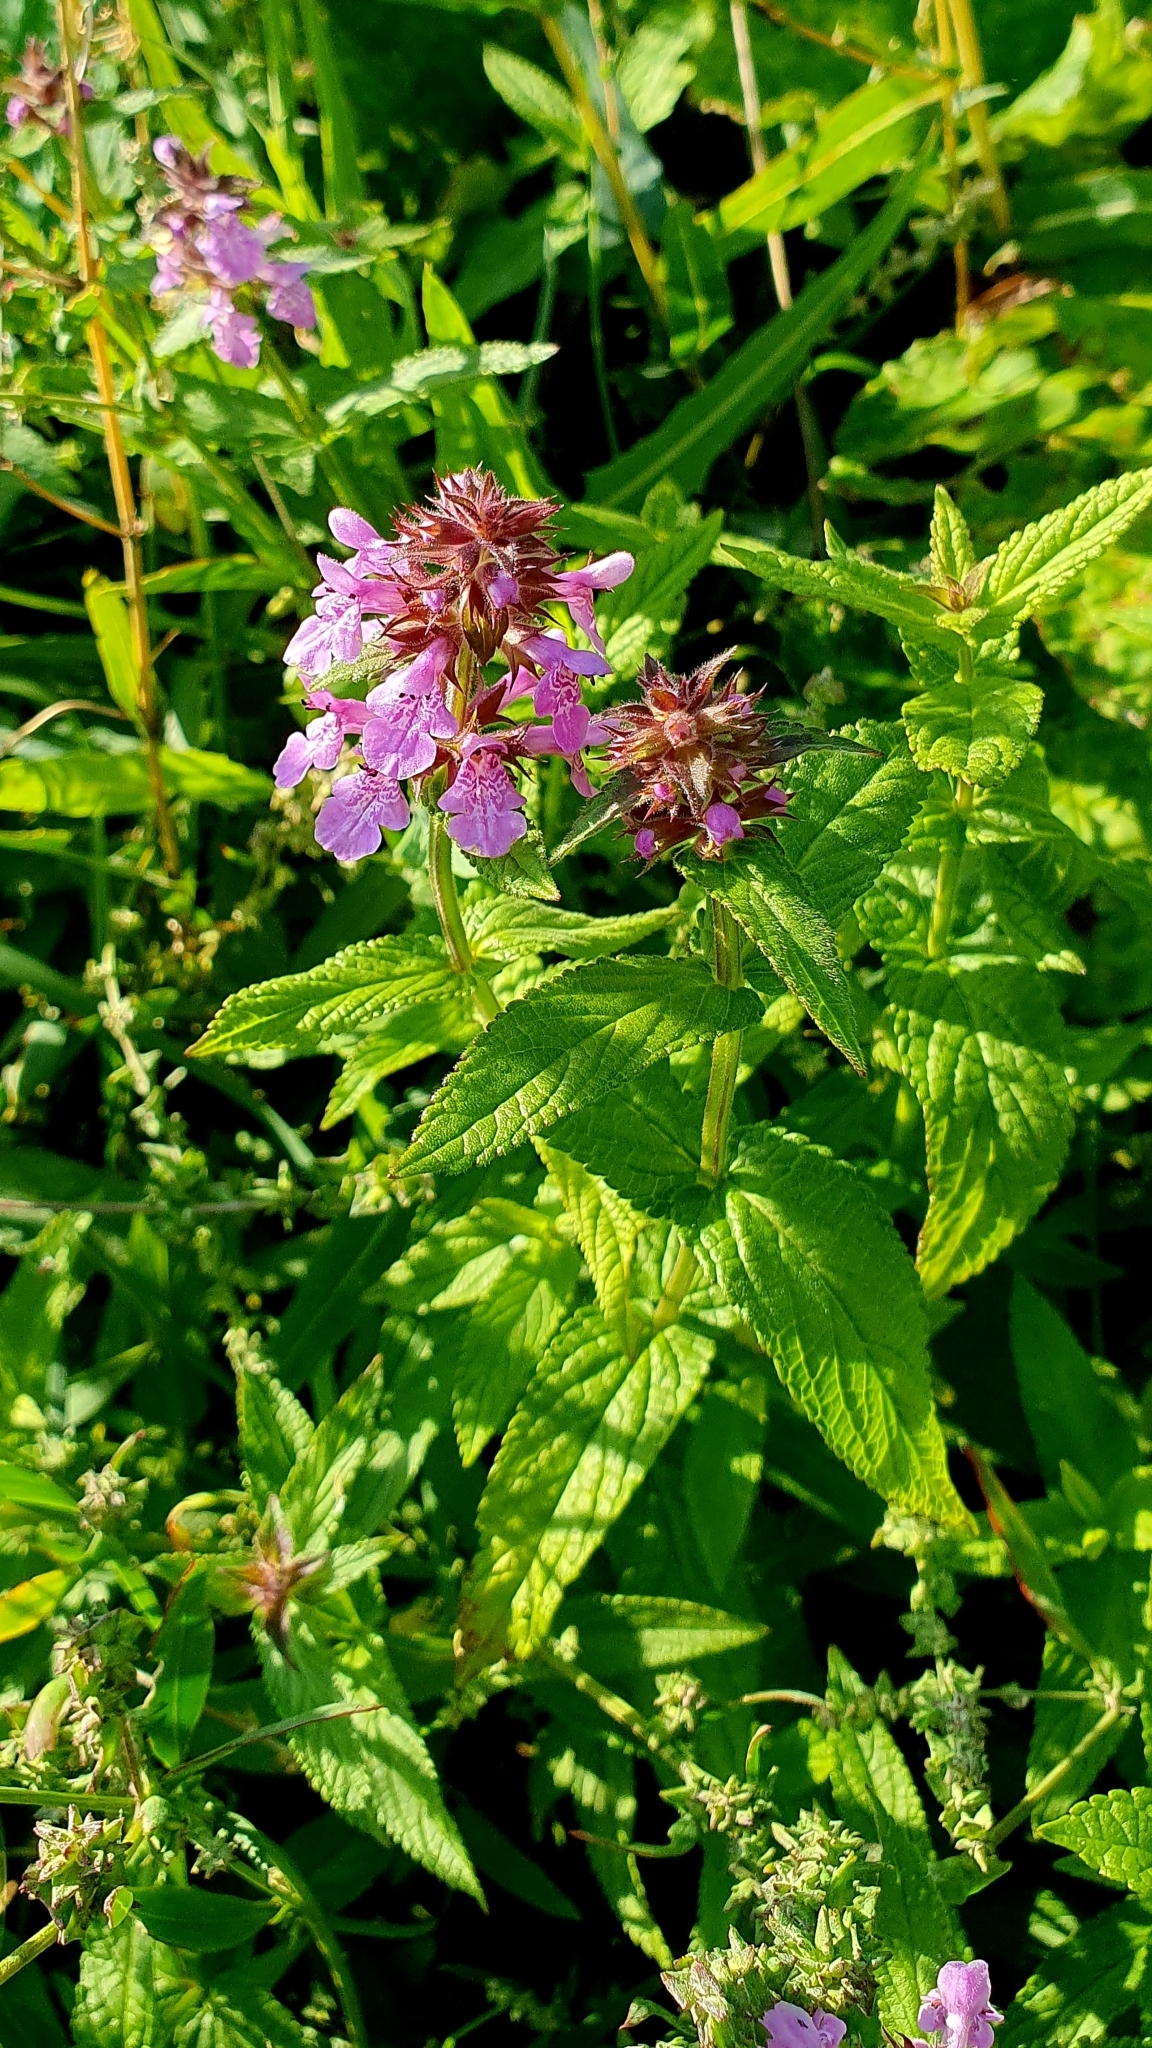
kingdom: Plantae
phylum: Tracheophyta
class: Magnoliopsida
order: Lamiales
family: Lamiaceae
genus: Stachys
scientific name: Stachys palustris
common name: Marsh woundwort
